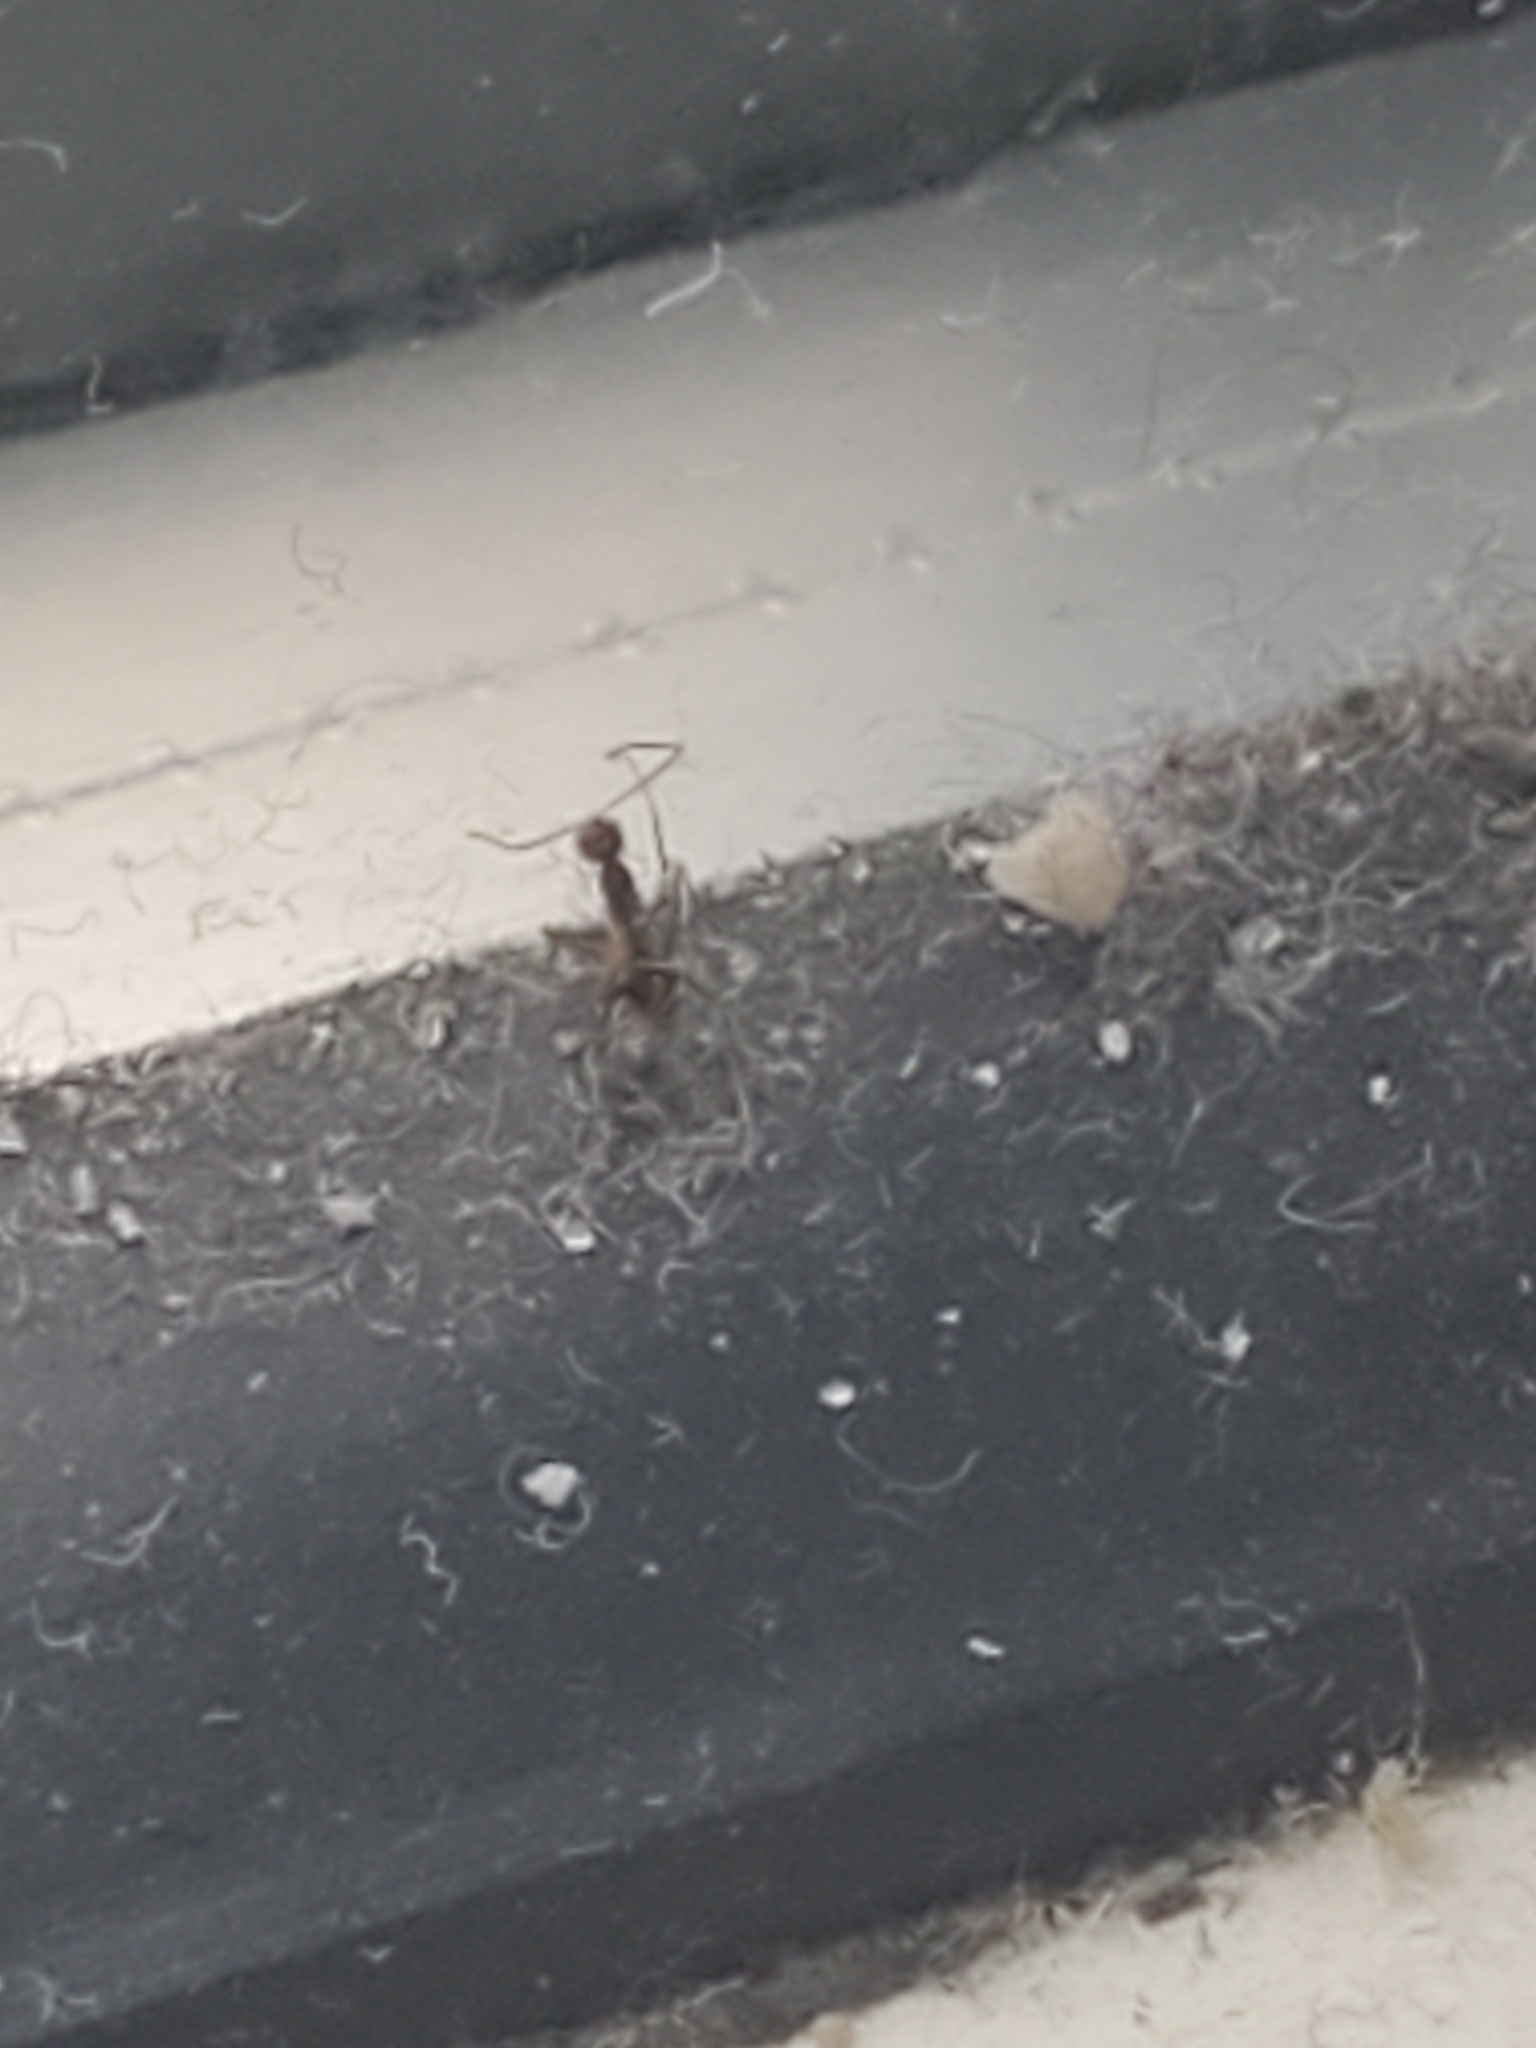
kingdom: Animalia
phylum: Arthropoda
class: Insecta
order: Hymenoptera
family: Formicidae
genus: Paratrechina
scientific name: Paratrechina longicornis
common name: Longhorned crazy ant
